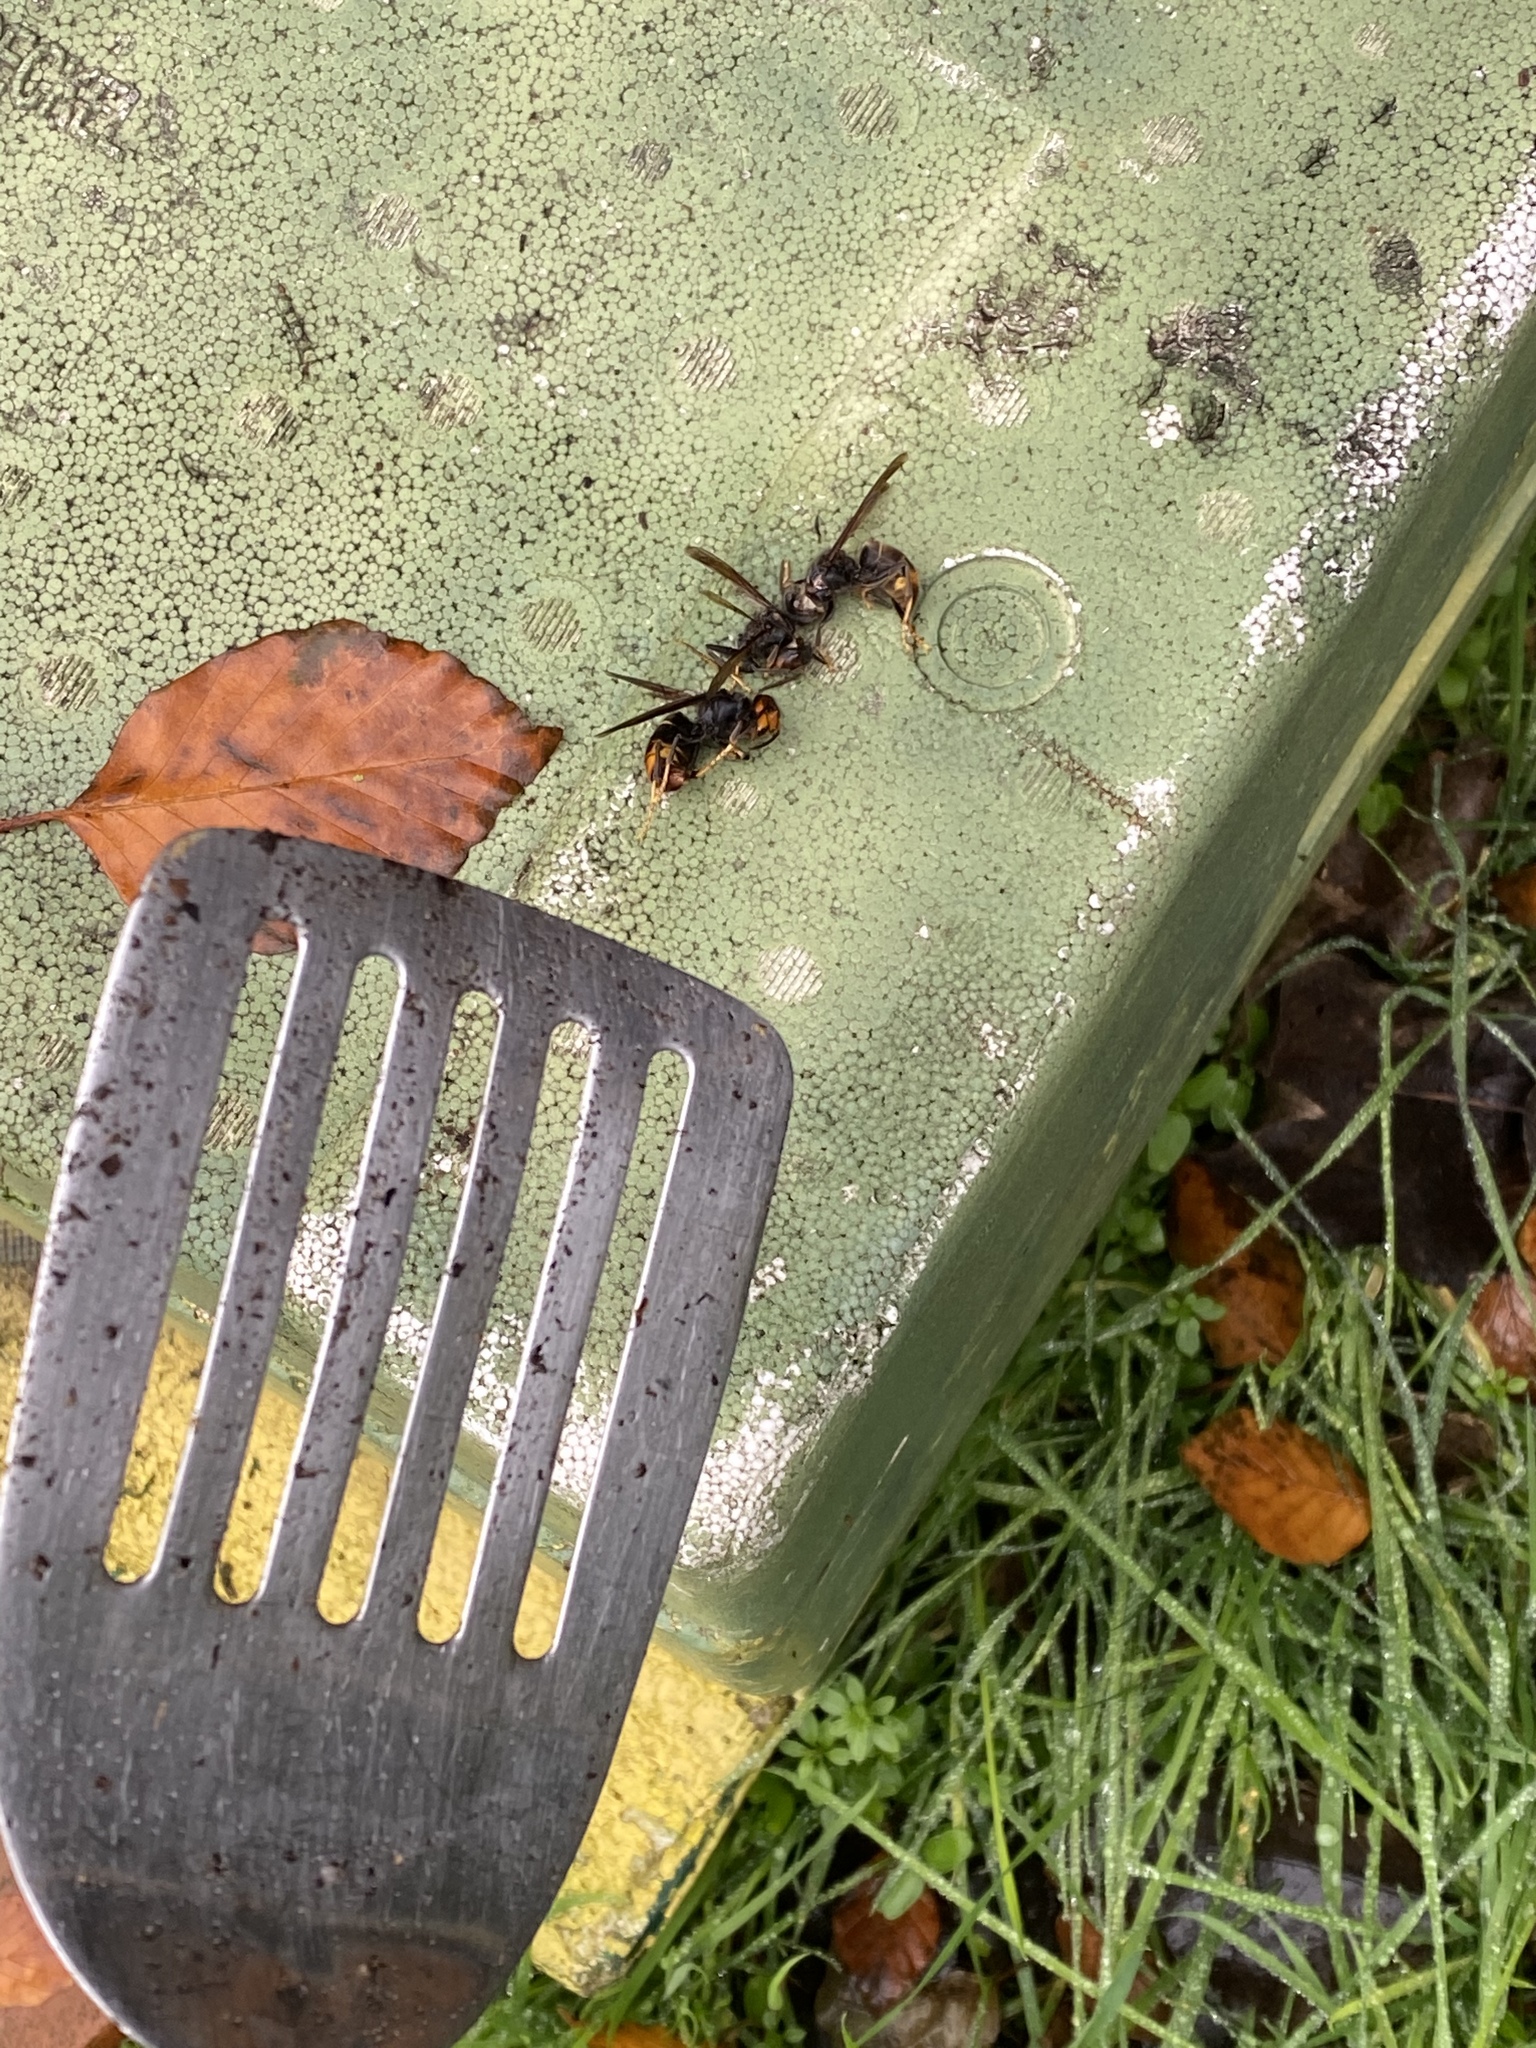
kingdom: Animalia
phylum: Arthropoda
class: Insecta
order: Hymenoptera
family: Vespidae
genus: Vespa
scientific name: Vespa velutina
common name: Asian hornet
